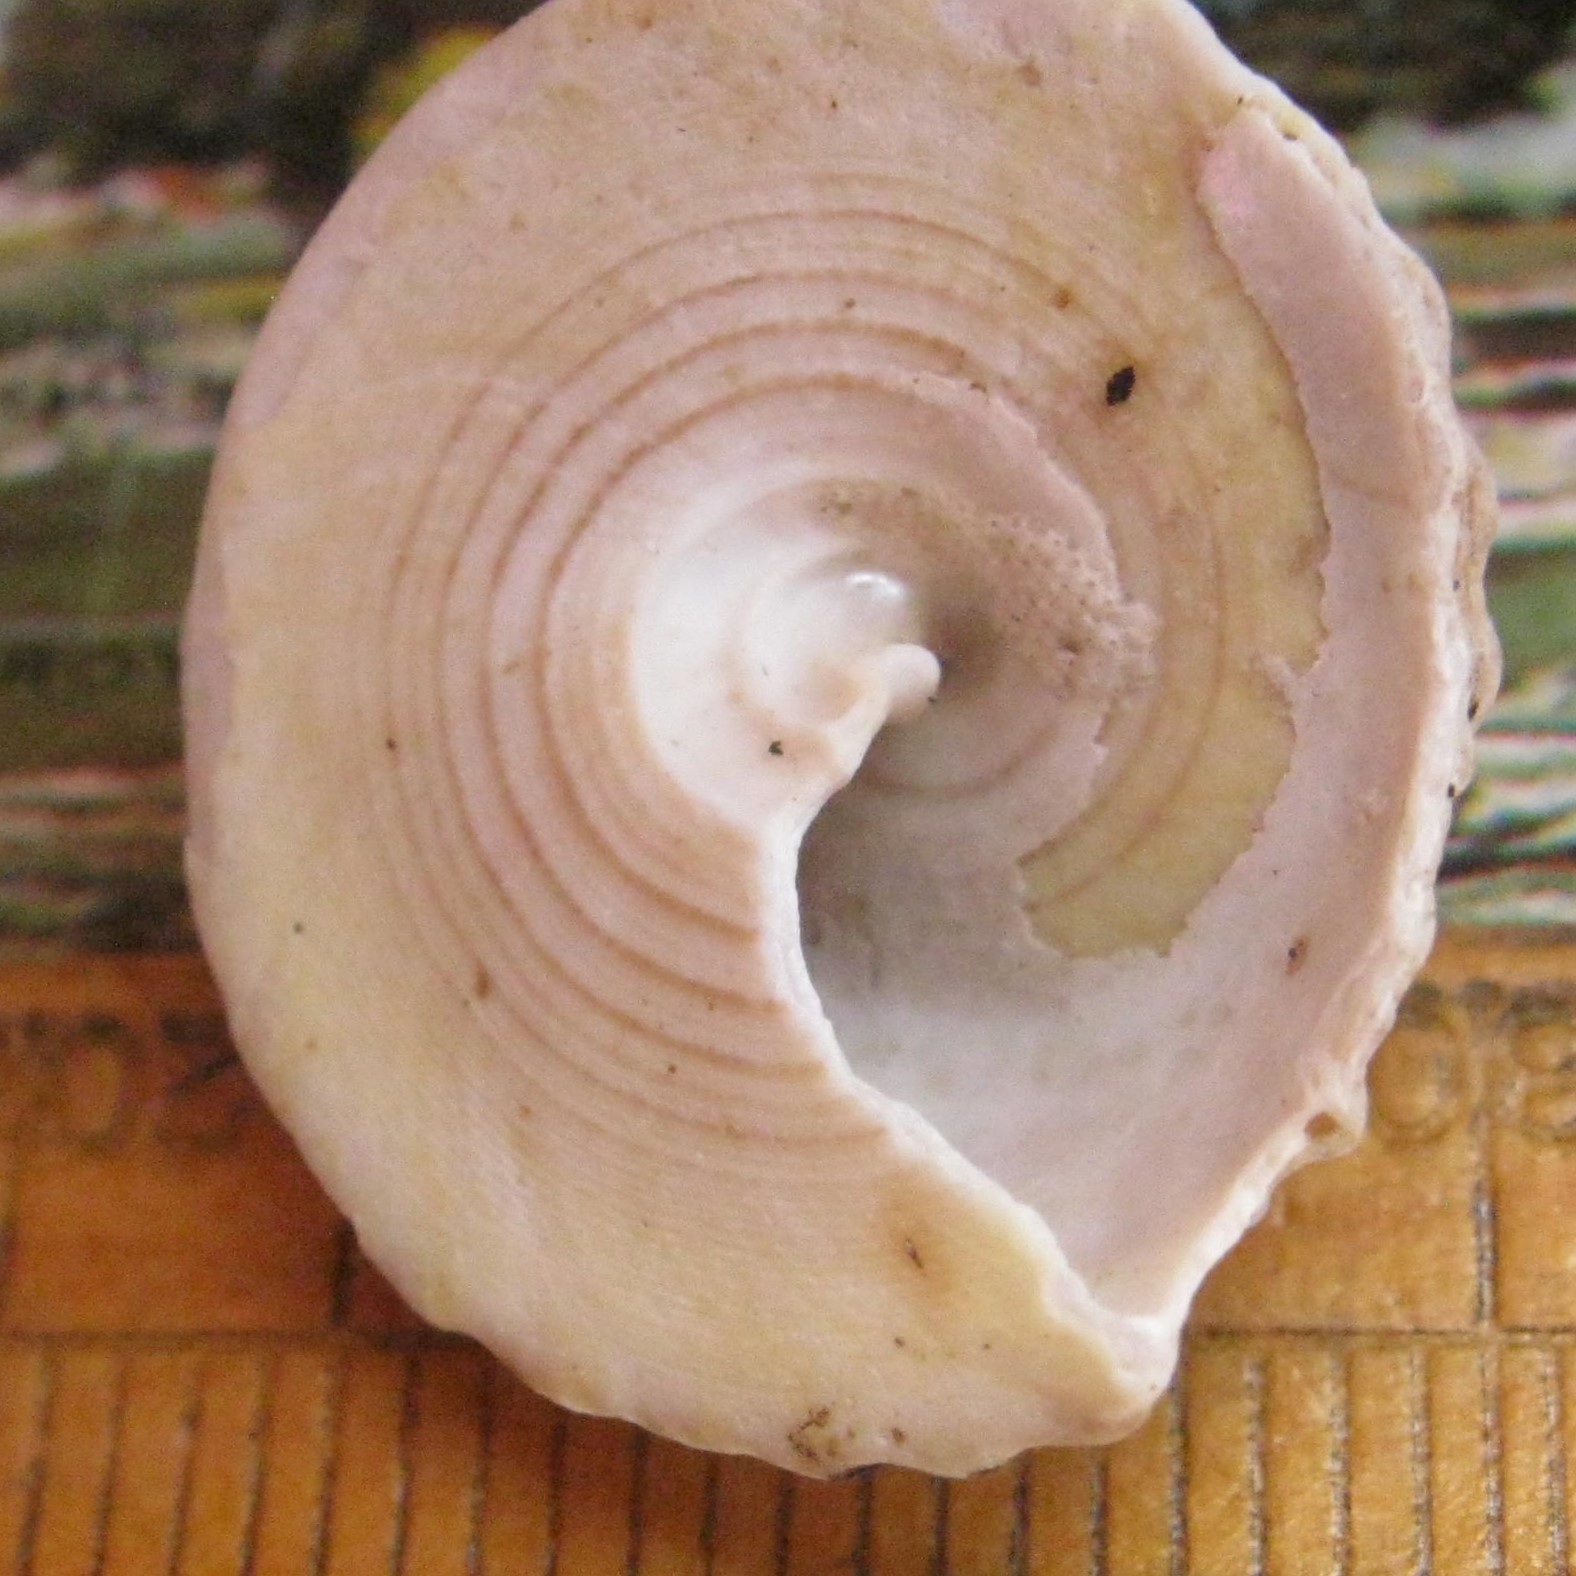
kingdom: Animalia
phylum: Mollusca
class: Gastropoda
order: Trochida
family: Trochidae
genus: Coelotrochus
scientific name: Coelotrochus viridis
